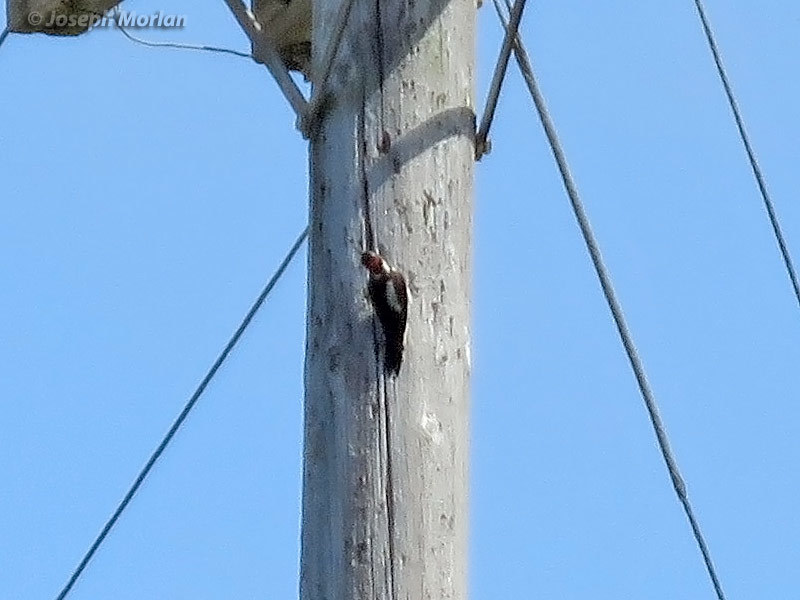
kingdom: Animalia
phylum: Chordata
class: Aves
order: Piciformes
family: Picidae
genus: Leuconotopicus
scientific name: Leuconotopicus villosus
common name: Hairy woodpecker
